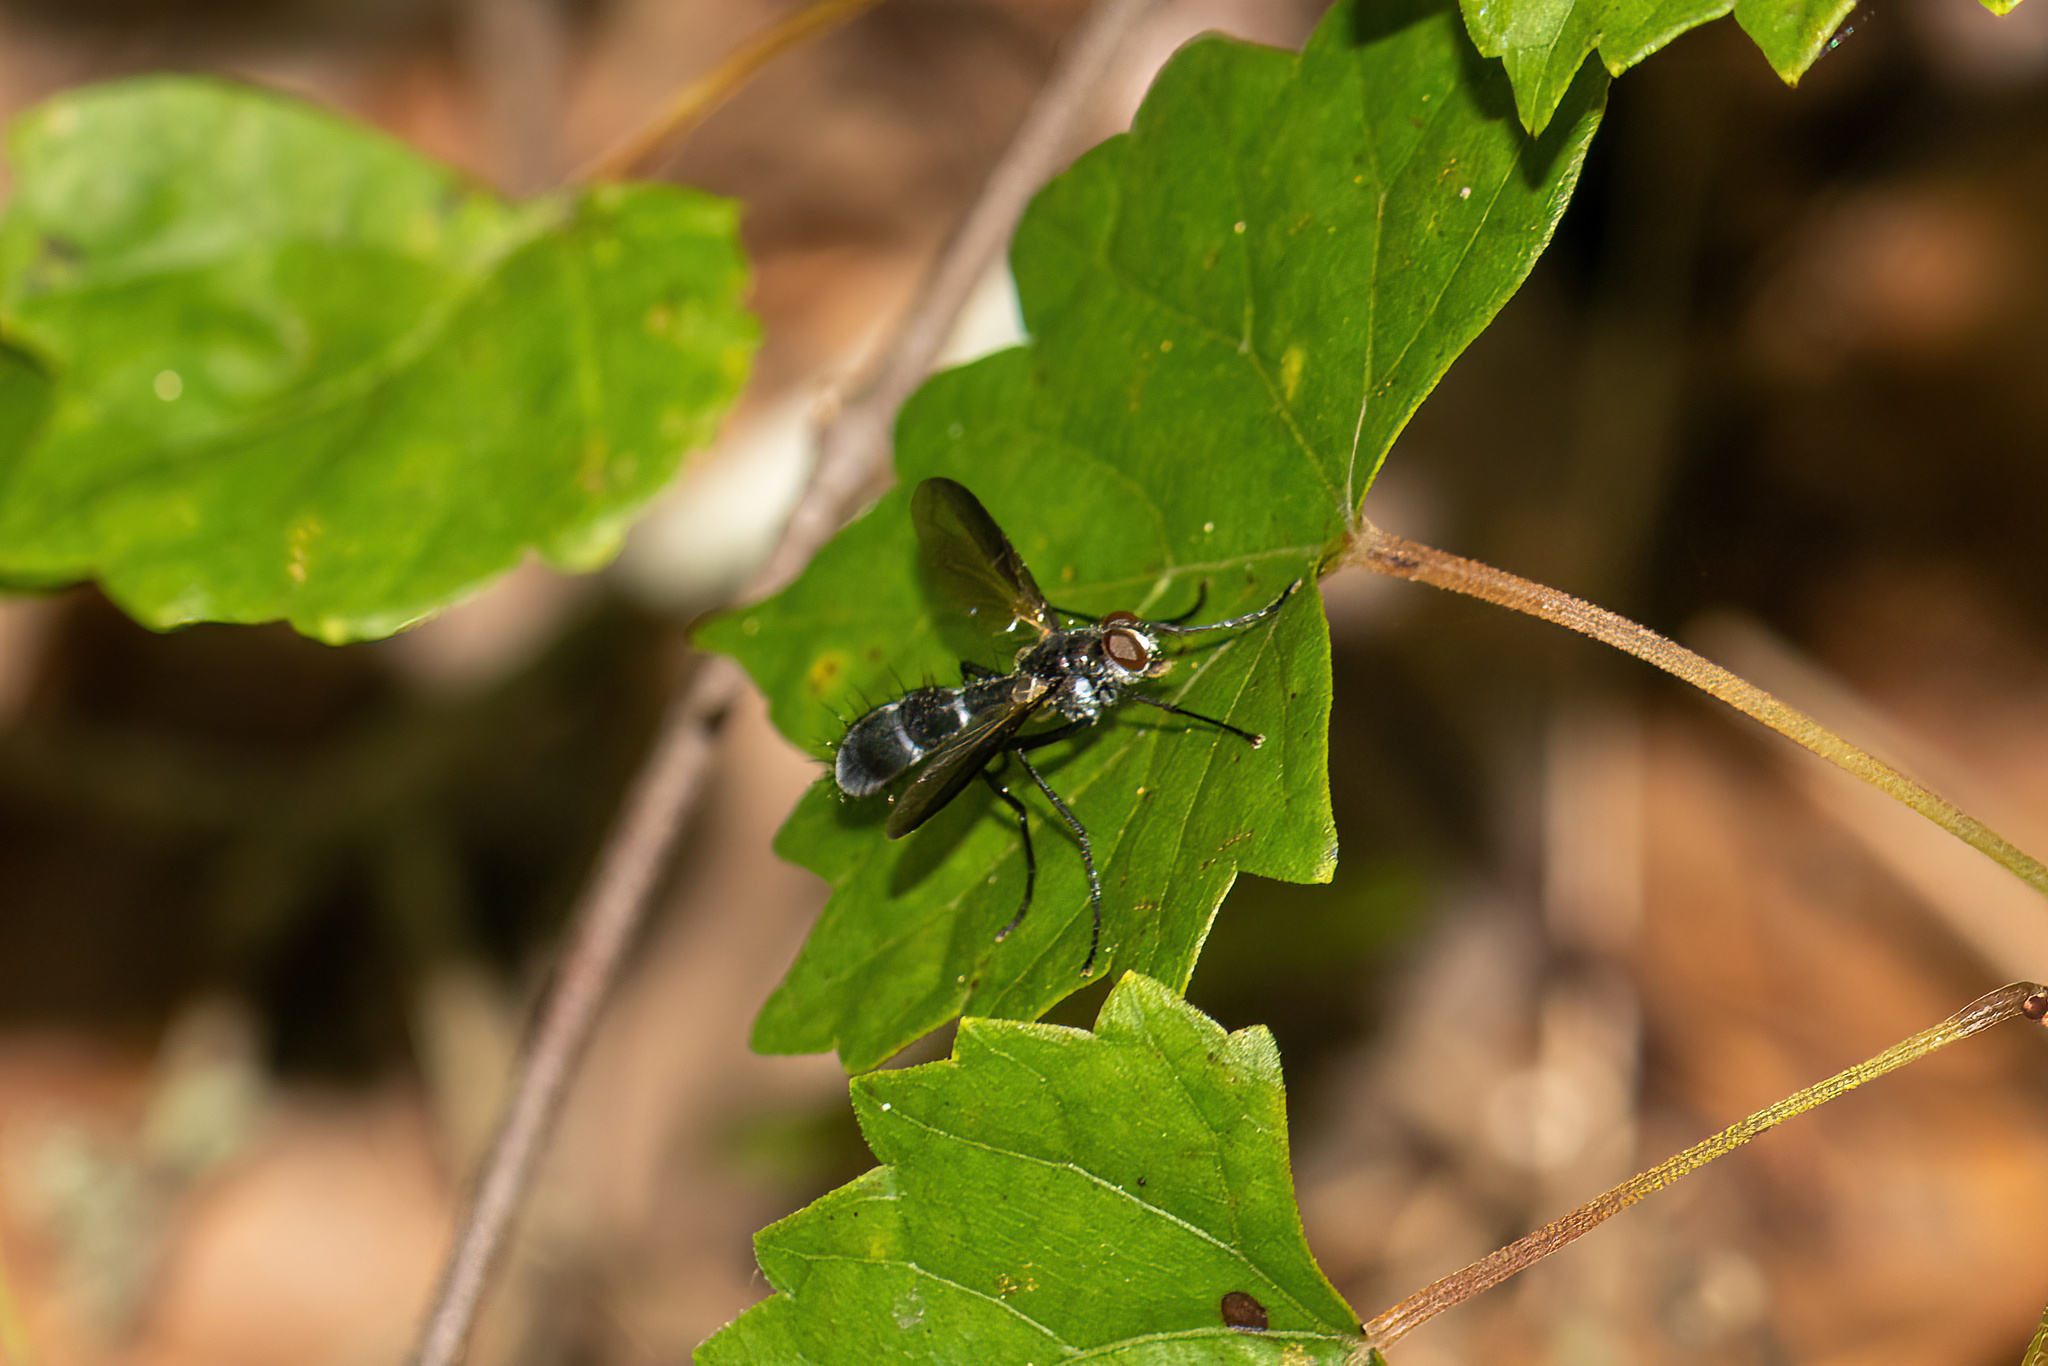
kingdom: Animalia
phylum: Arthropoda
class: Insecta
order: Diptera
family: Tachinidae
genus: Cordyligaster
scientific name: Cordyligaster septentrionalis
